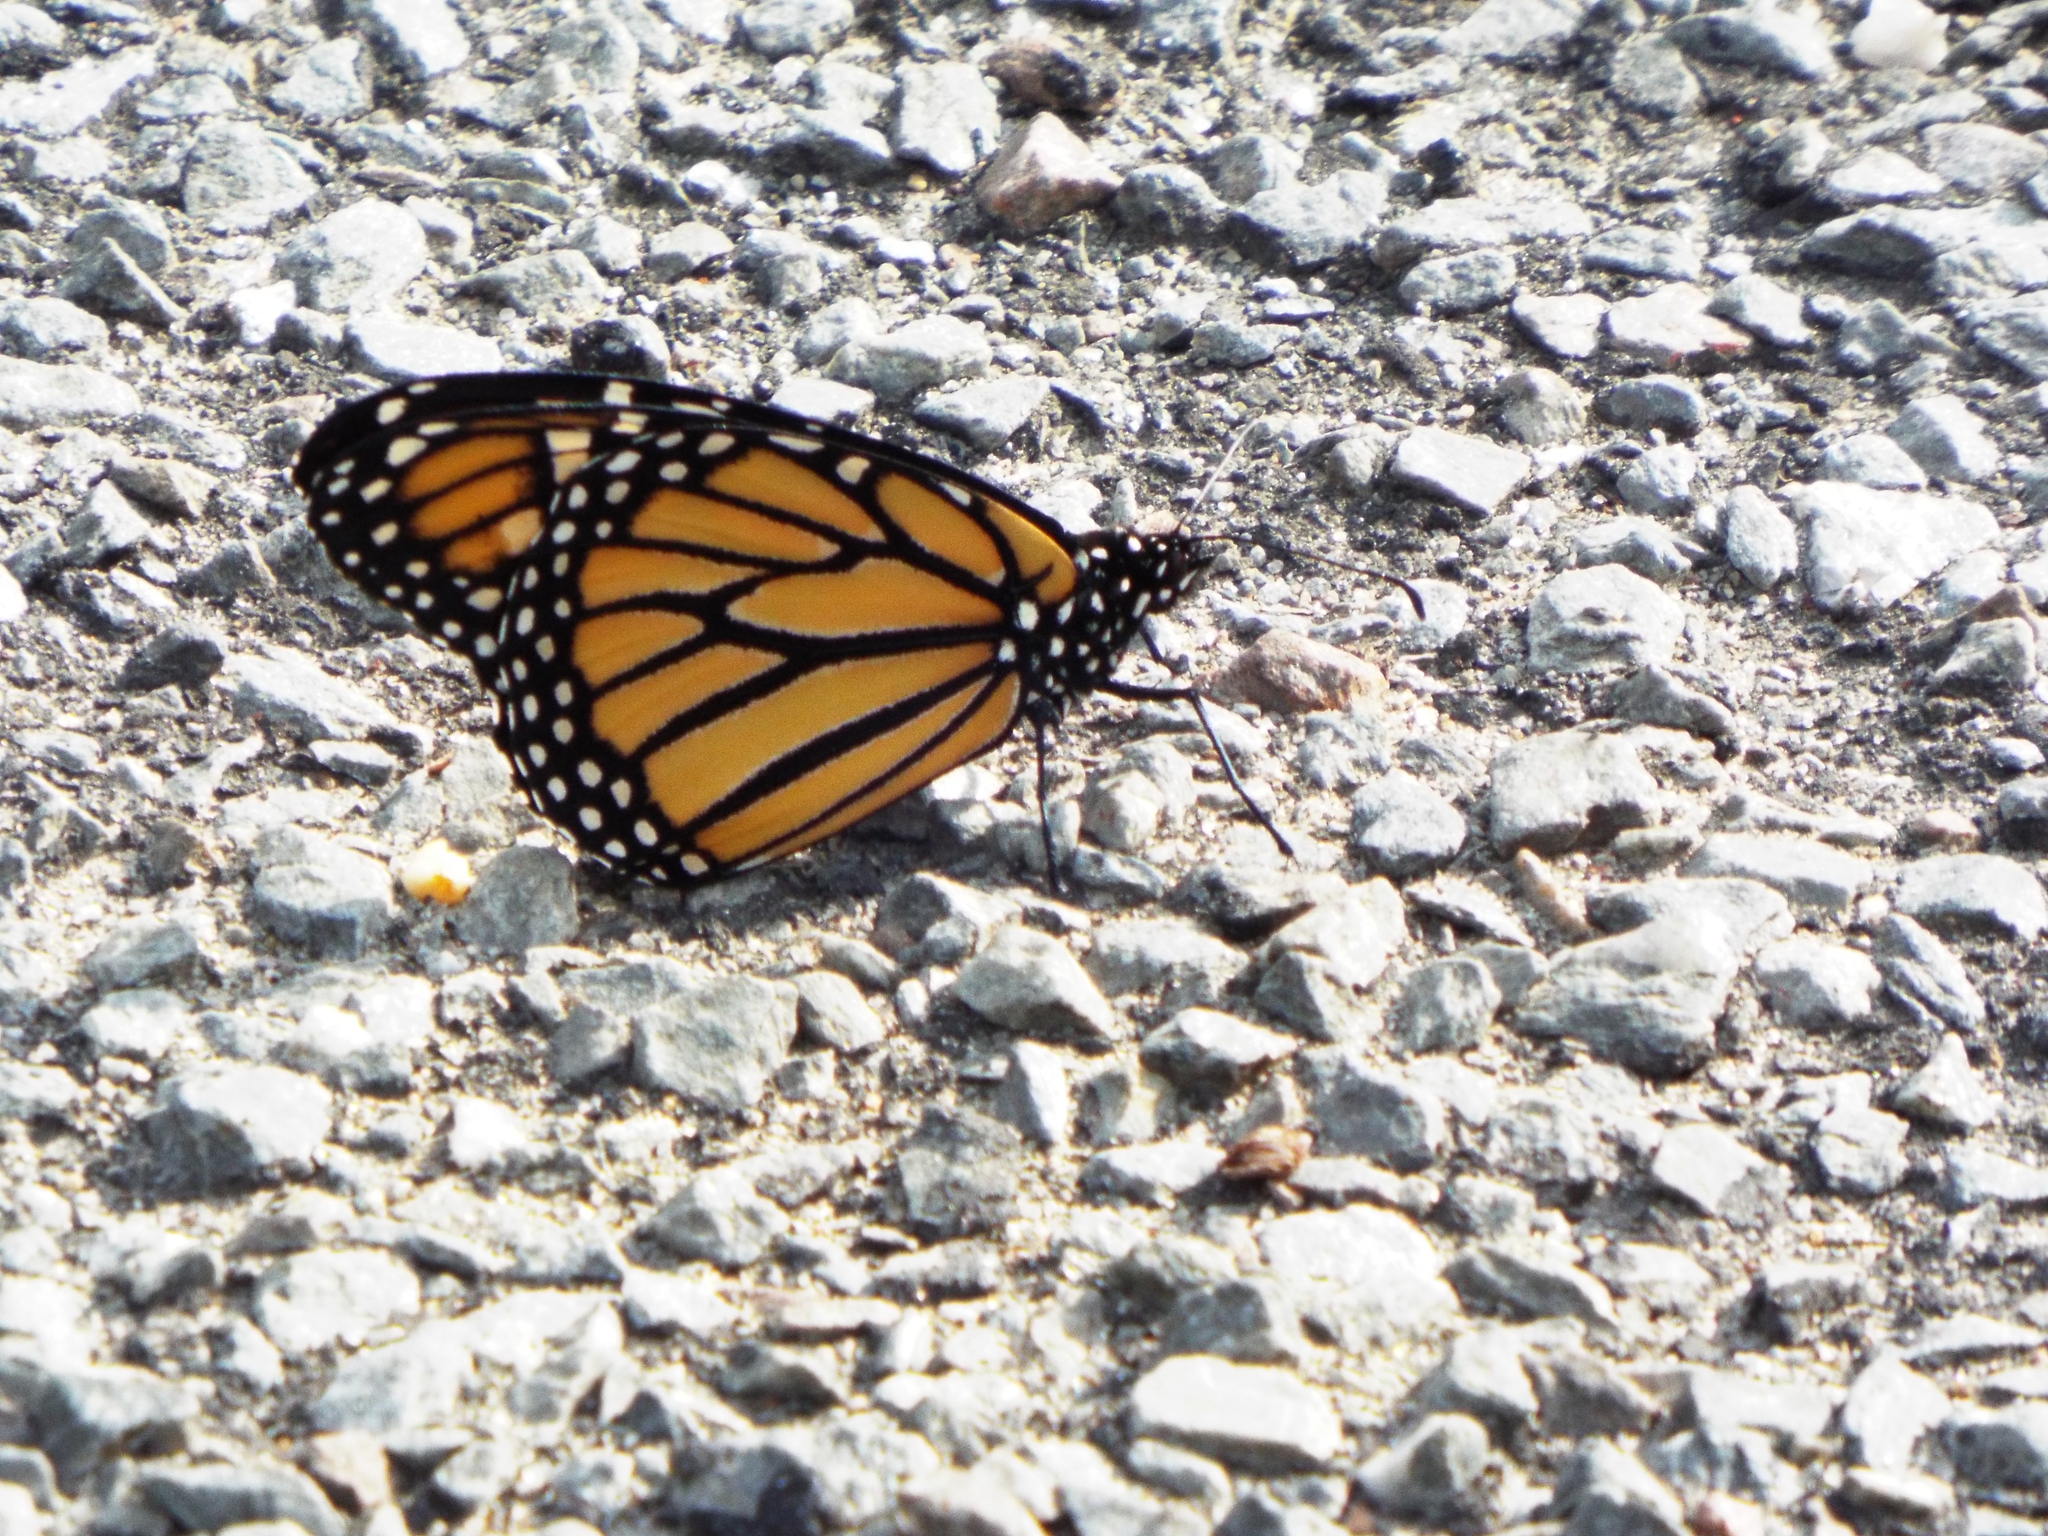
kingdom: Animalia
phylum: Arthropoda
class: Insecta
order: Lepidoptera
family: Nymphalidae
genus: Danaus
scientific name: Danaus plexippus
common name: Monarch
